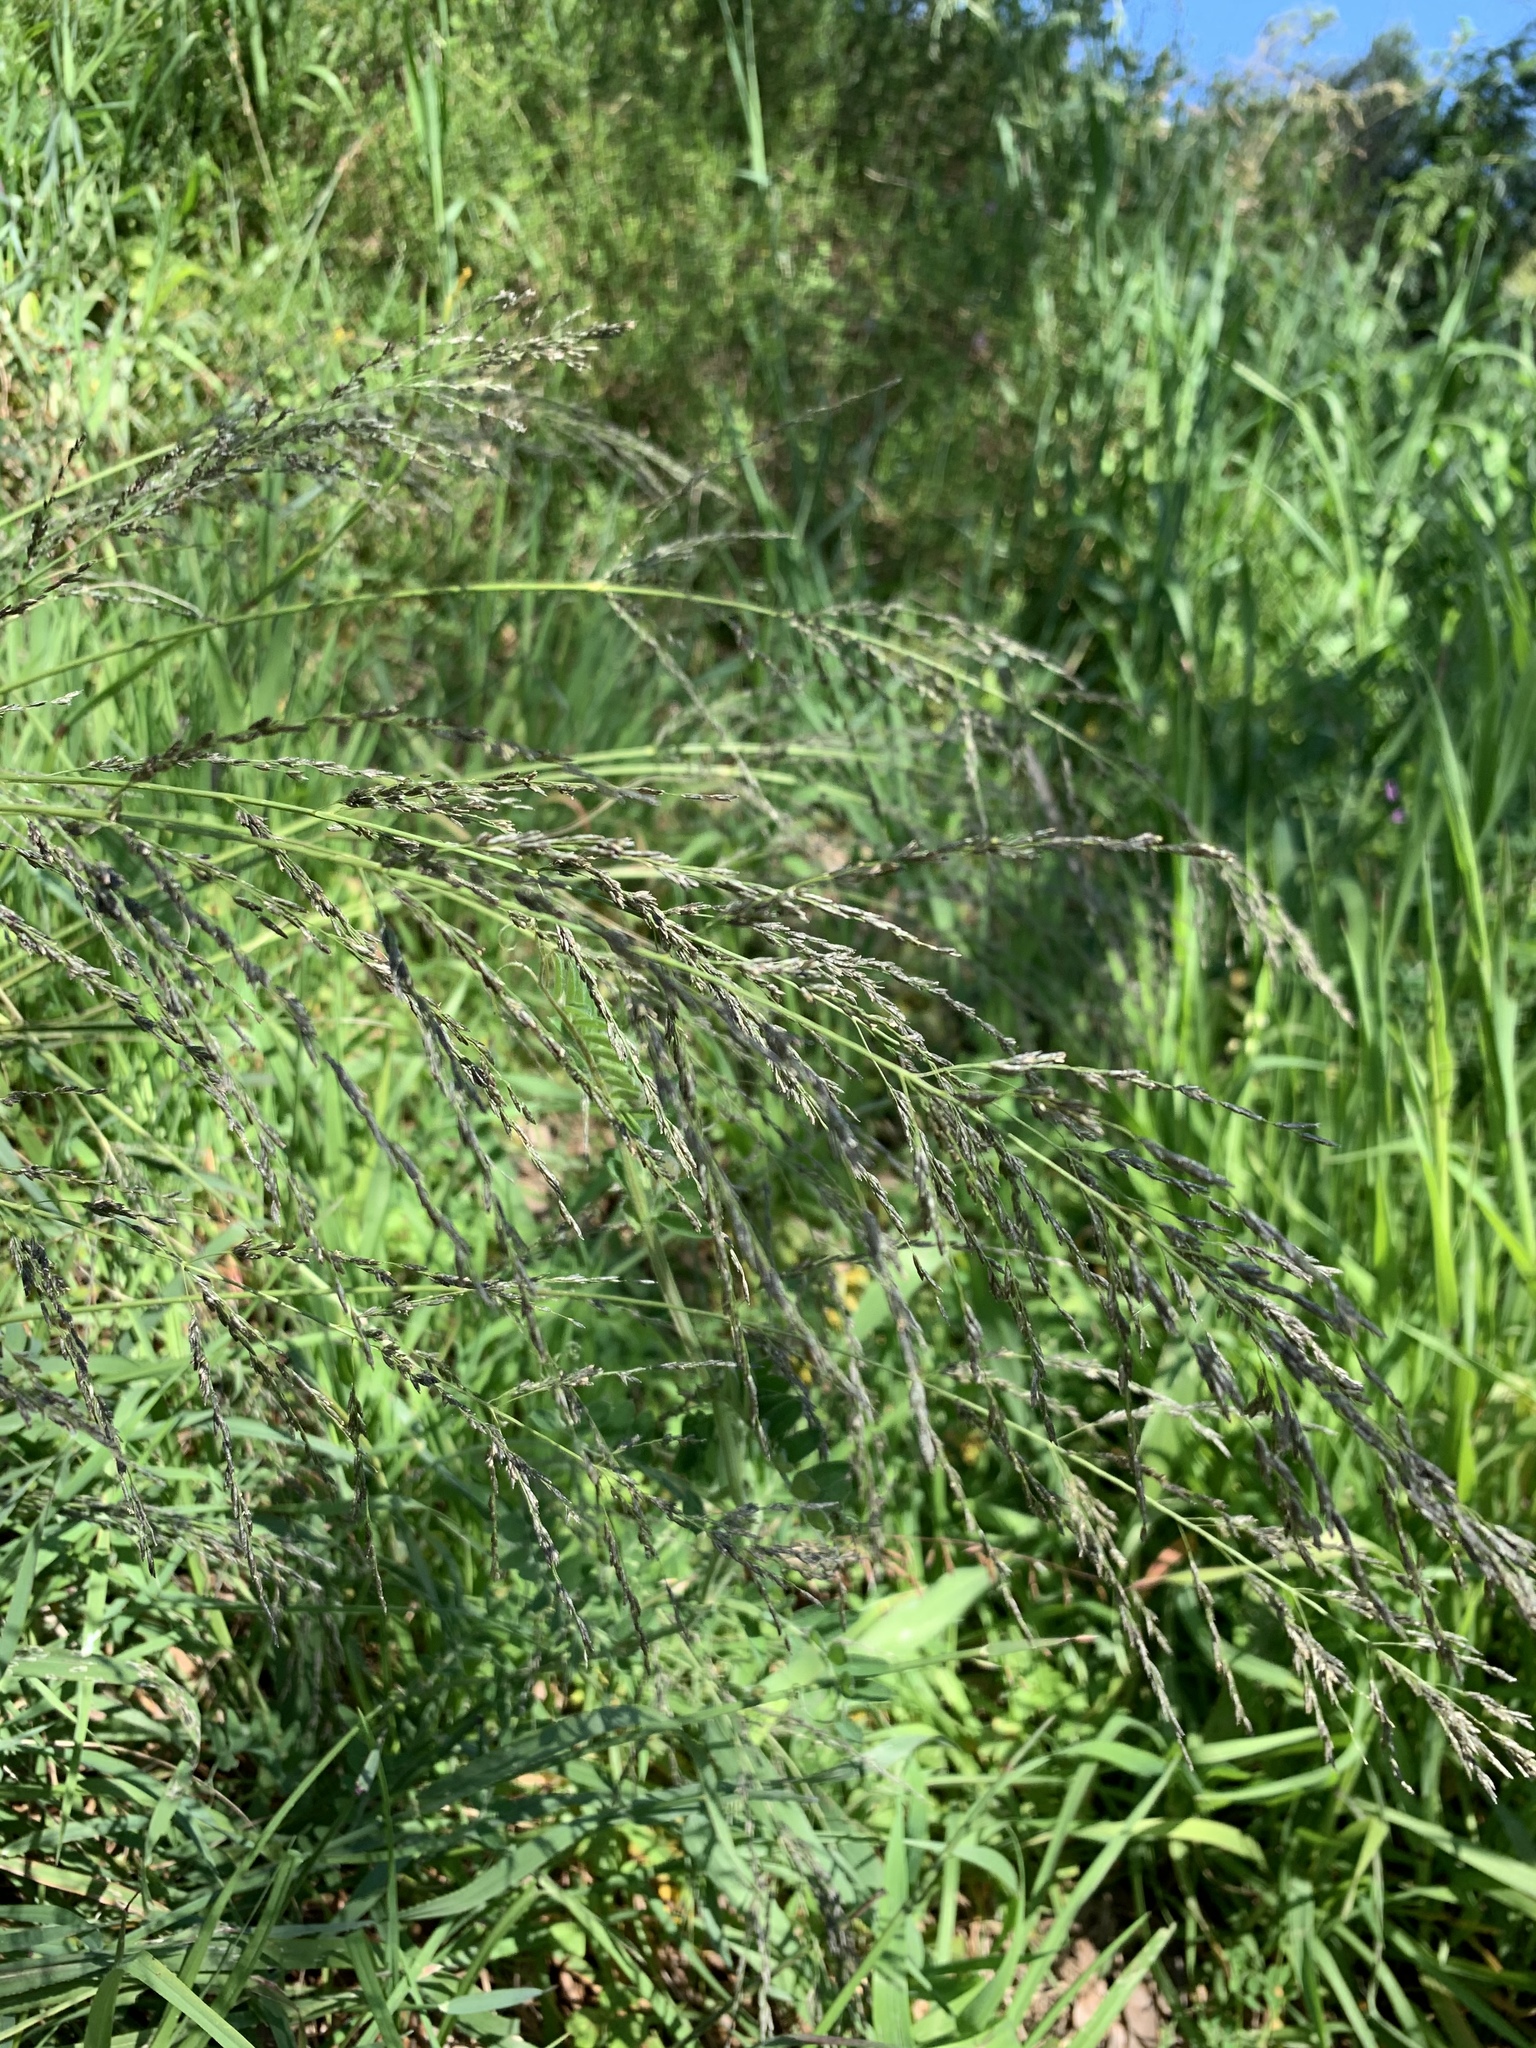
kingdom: Plantae
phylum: Tracheophyta
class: Liliopsida
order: Poales
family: Poaceae
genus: Eragrostis
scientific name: Eragrostis curvula
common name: African love-grass
